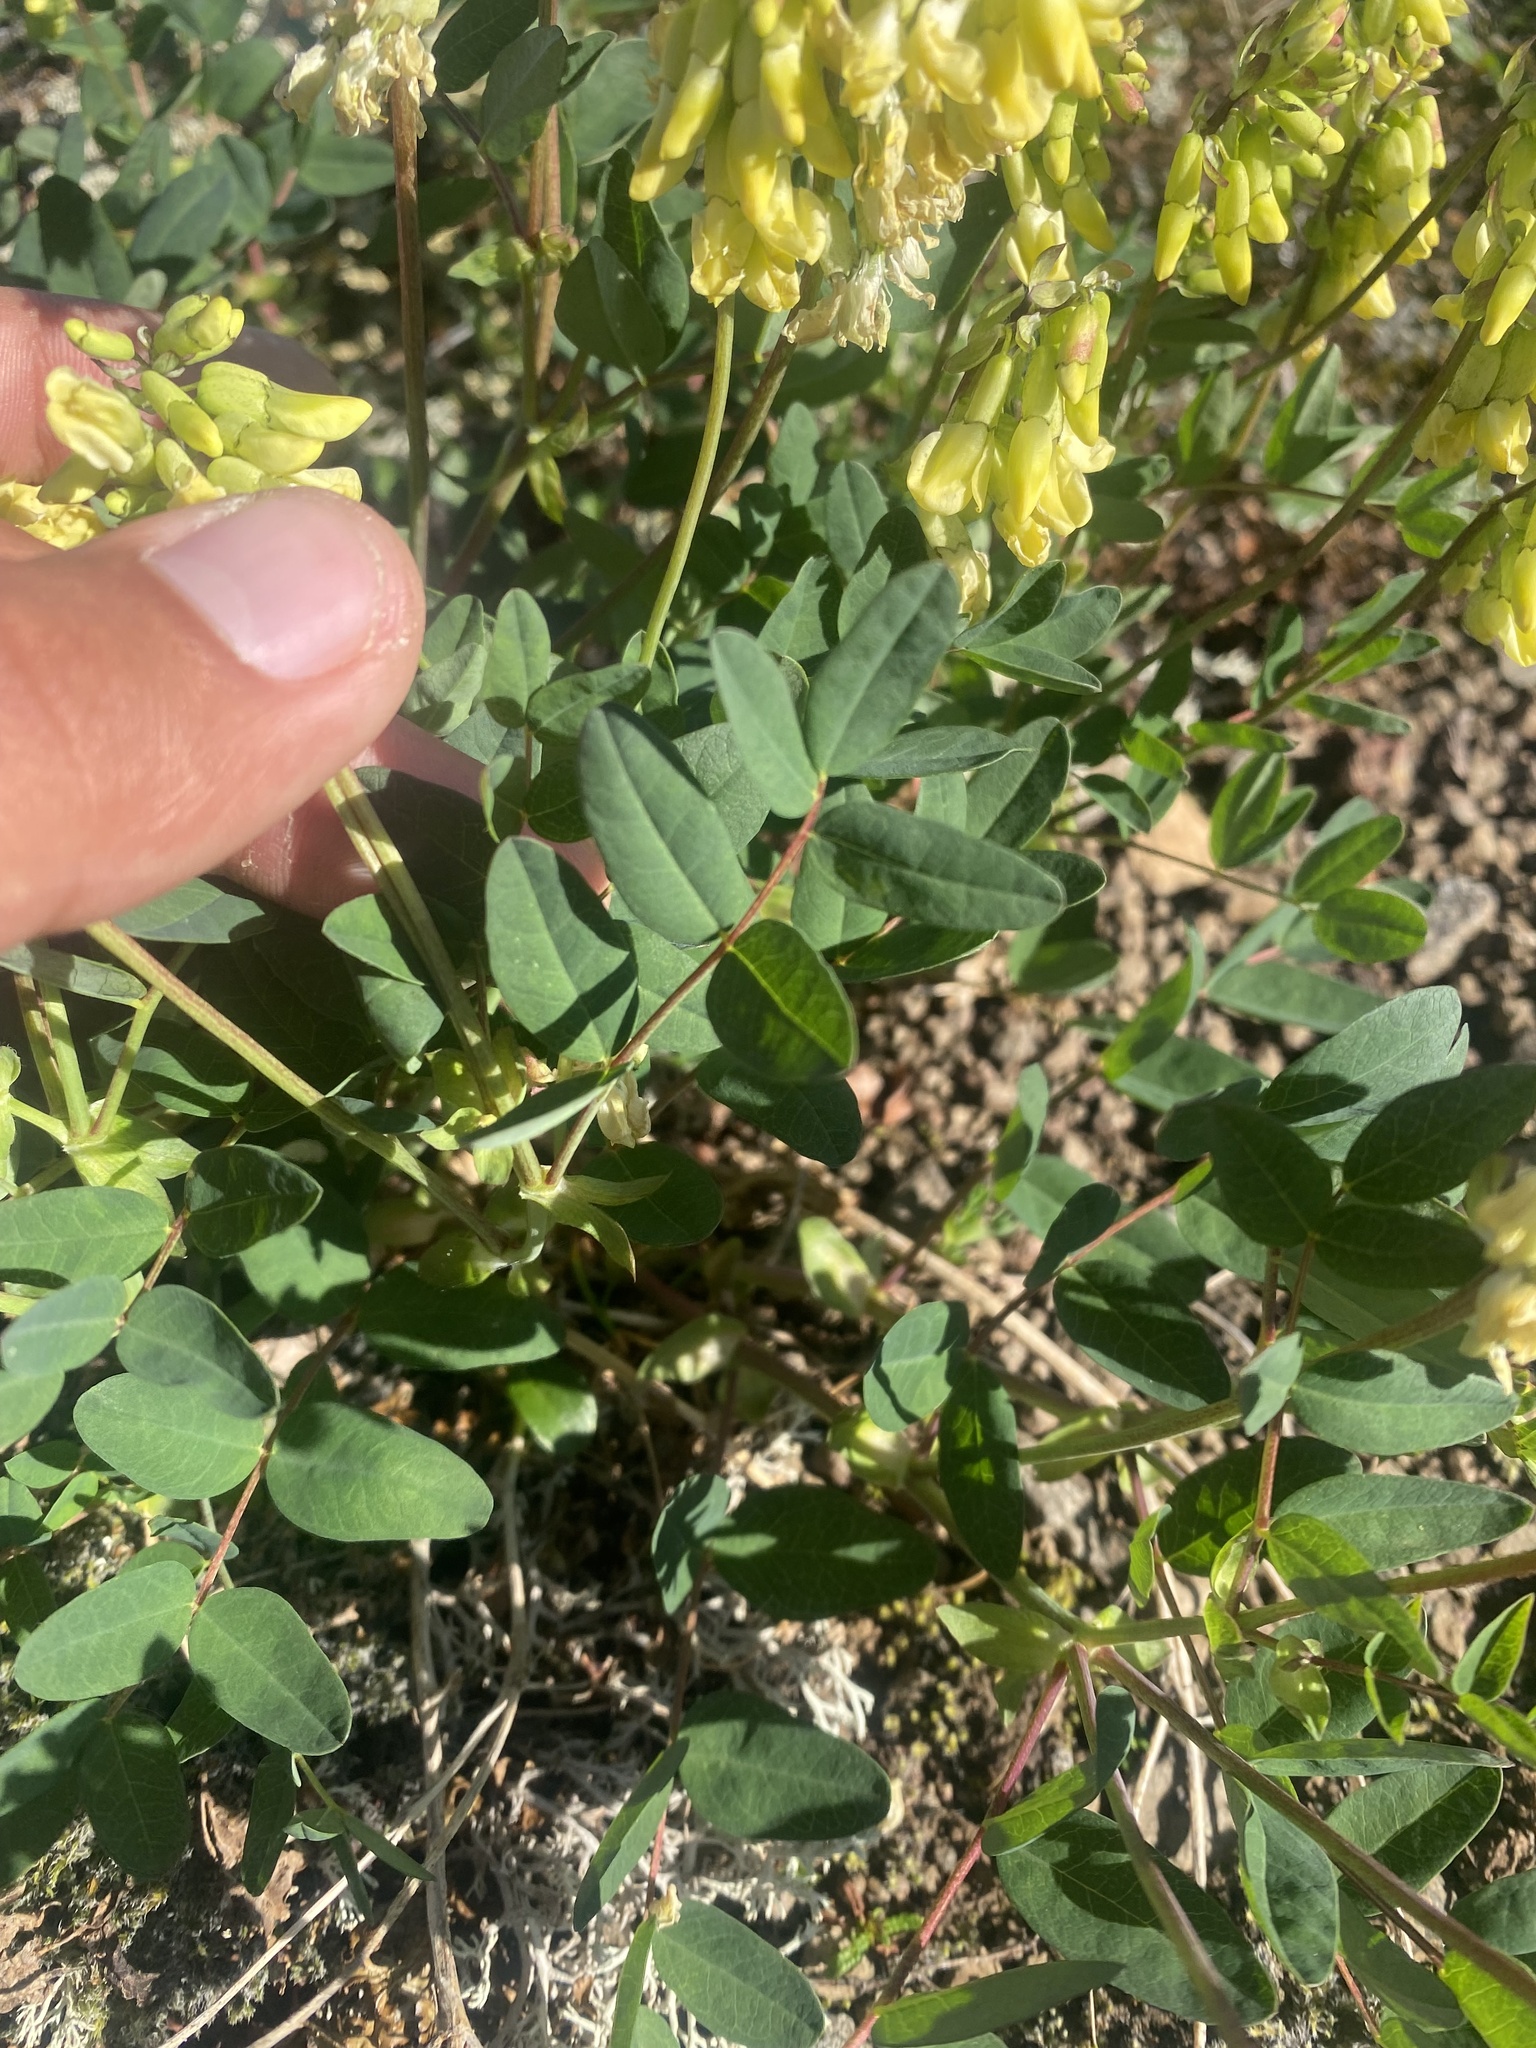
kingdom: Plantae
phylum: Tracheophyta
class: Magnoliopsida
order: Fabales
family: Fabaceae
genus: Astragalus
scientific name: Astragalus frigidus
